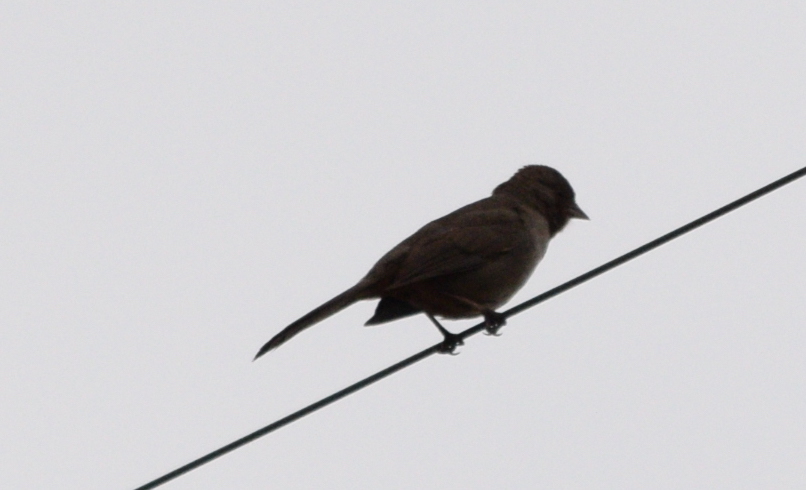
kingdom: Animalia
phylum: Chordata
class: Aves
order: Passeriformes
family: Passerellidae
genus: Melozone
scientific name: Melozone crissalis
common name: California towhee
